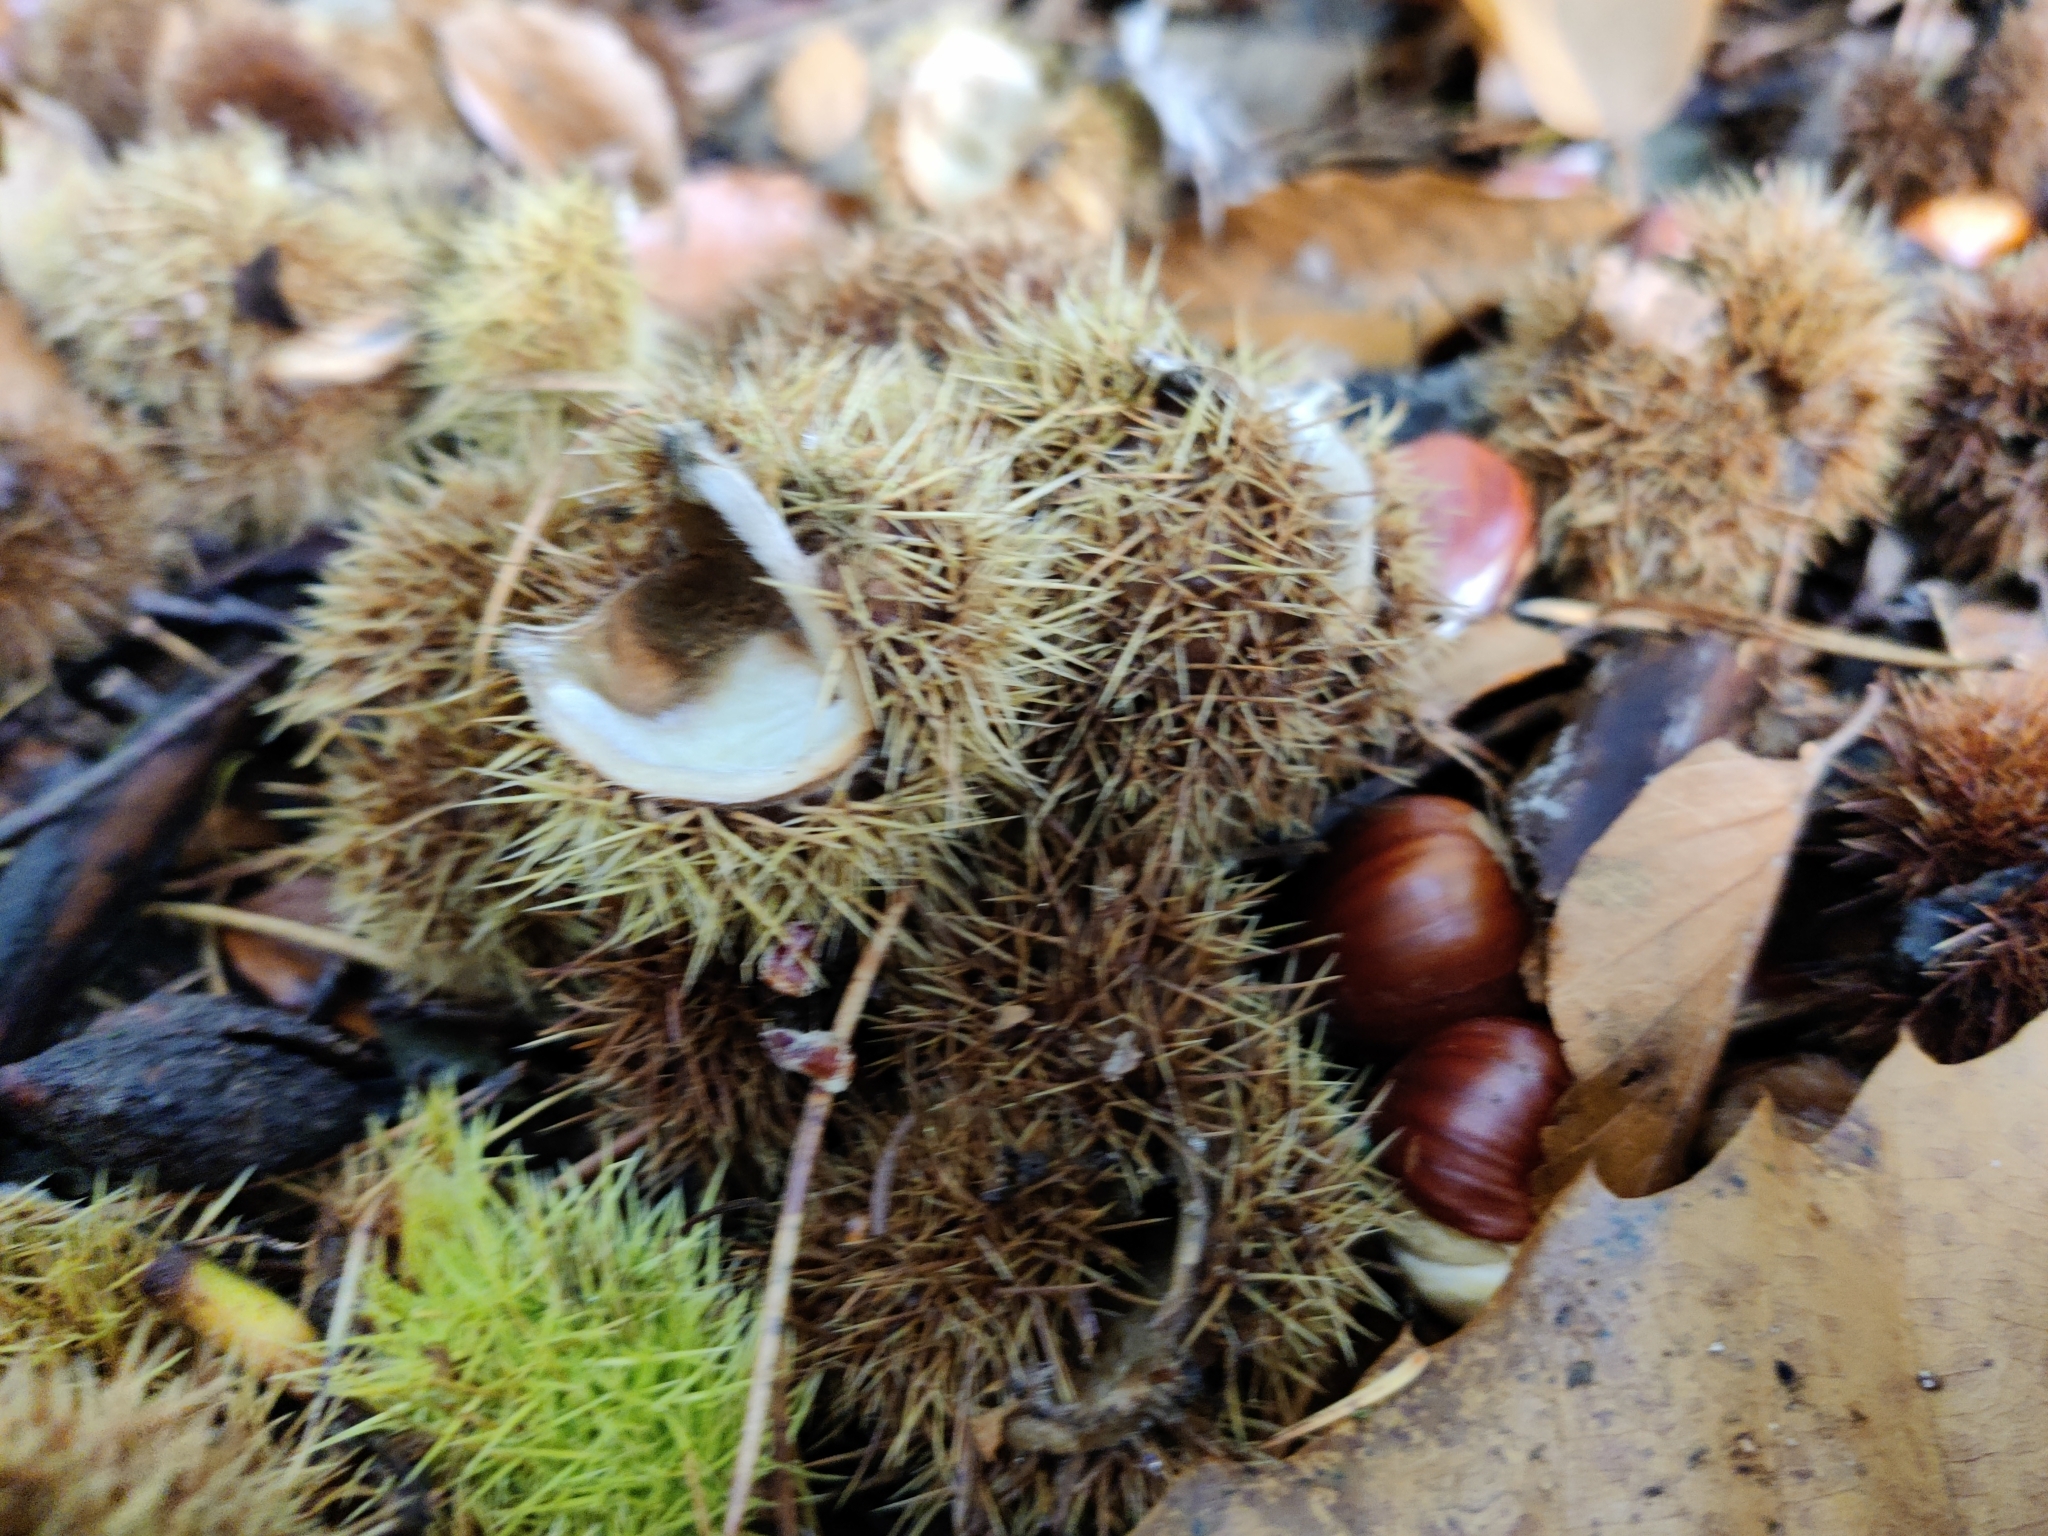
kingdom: Plantae
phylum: Tracheophyta
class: Magnoliopsida
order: Fagales
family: Fagaceae
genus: Castanea
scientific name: Castanea sativa
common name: Sweet chestnut
